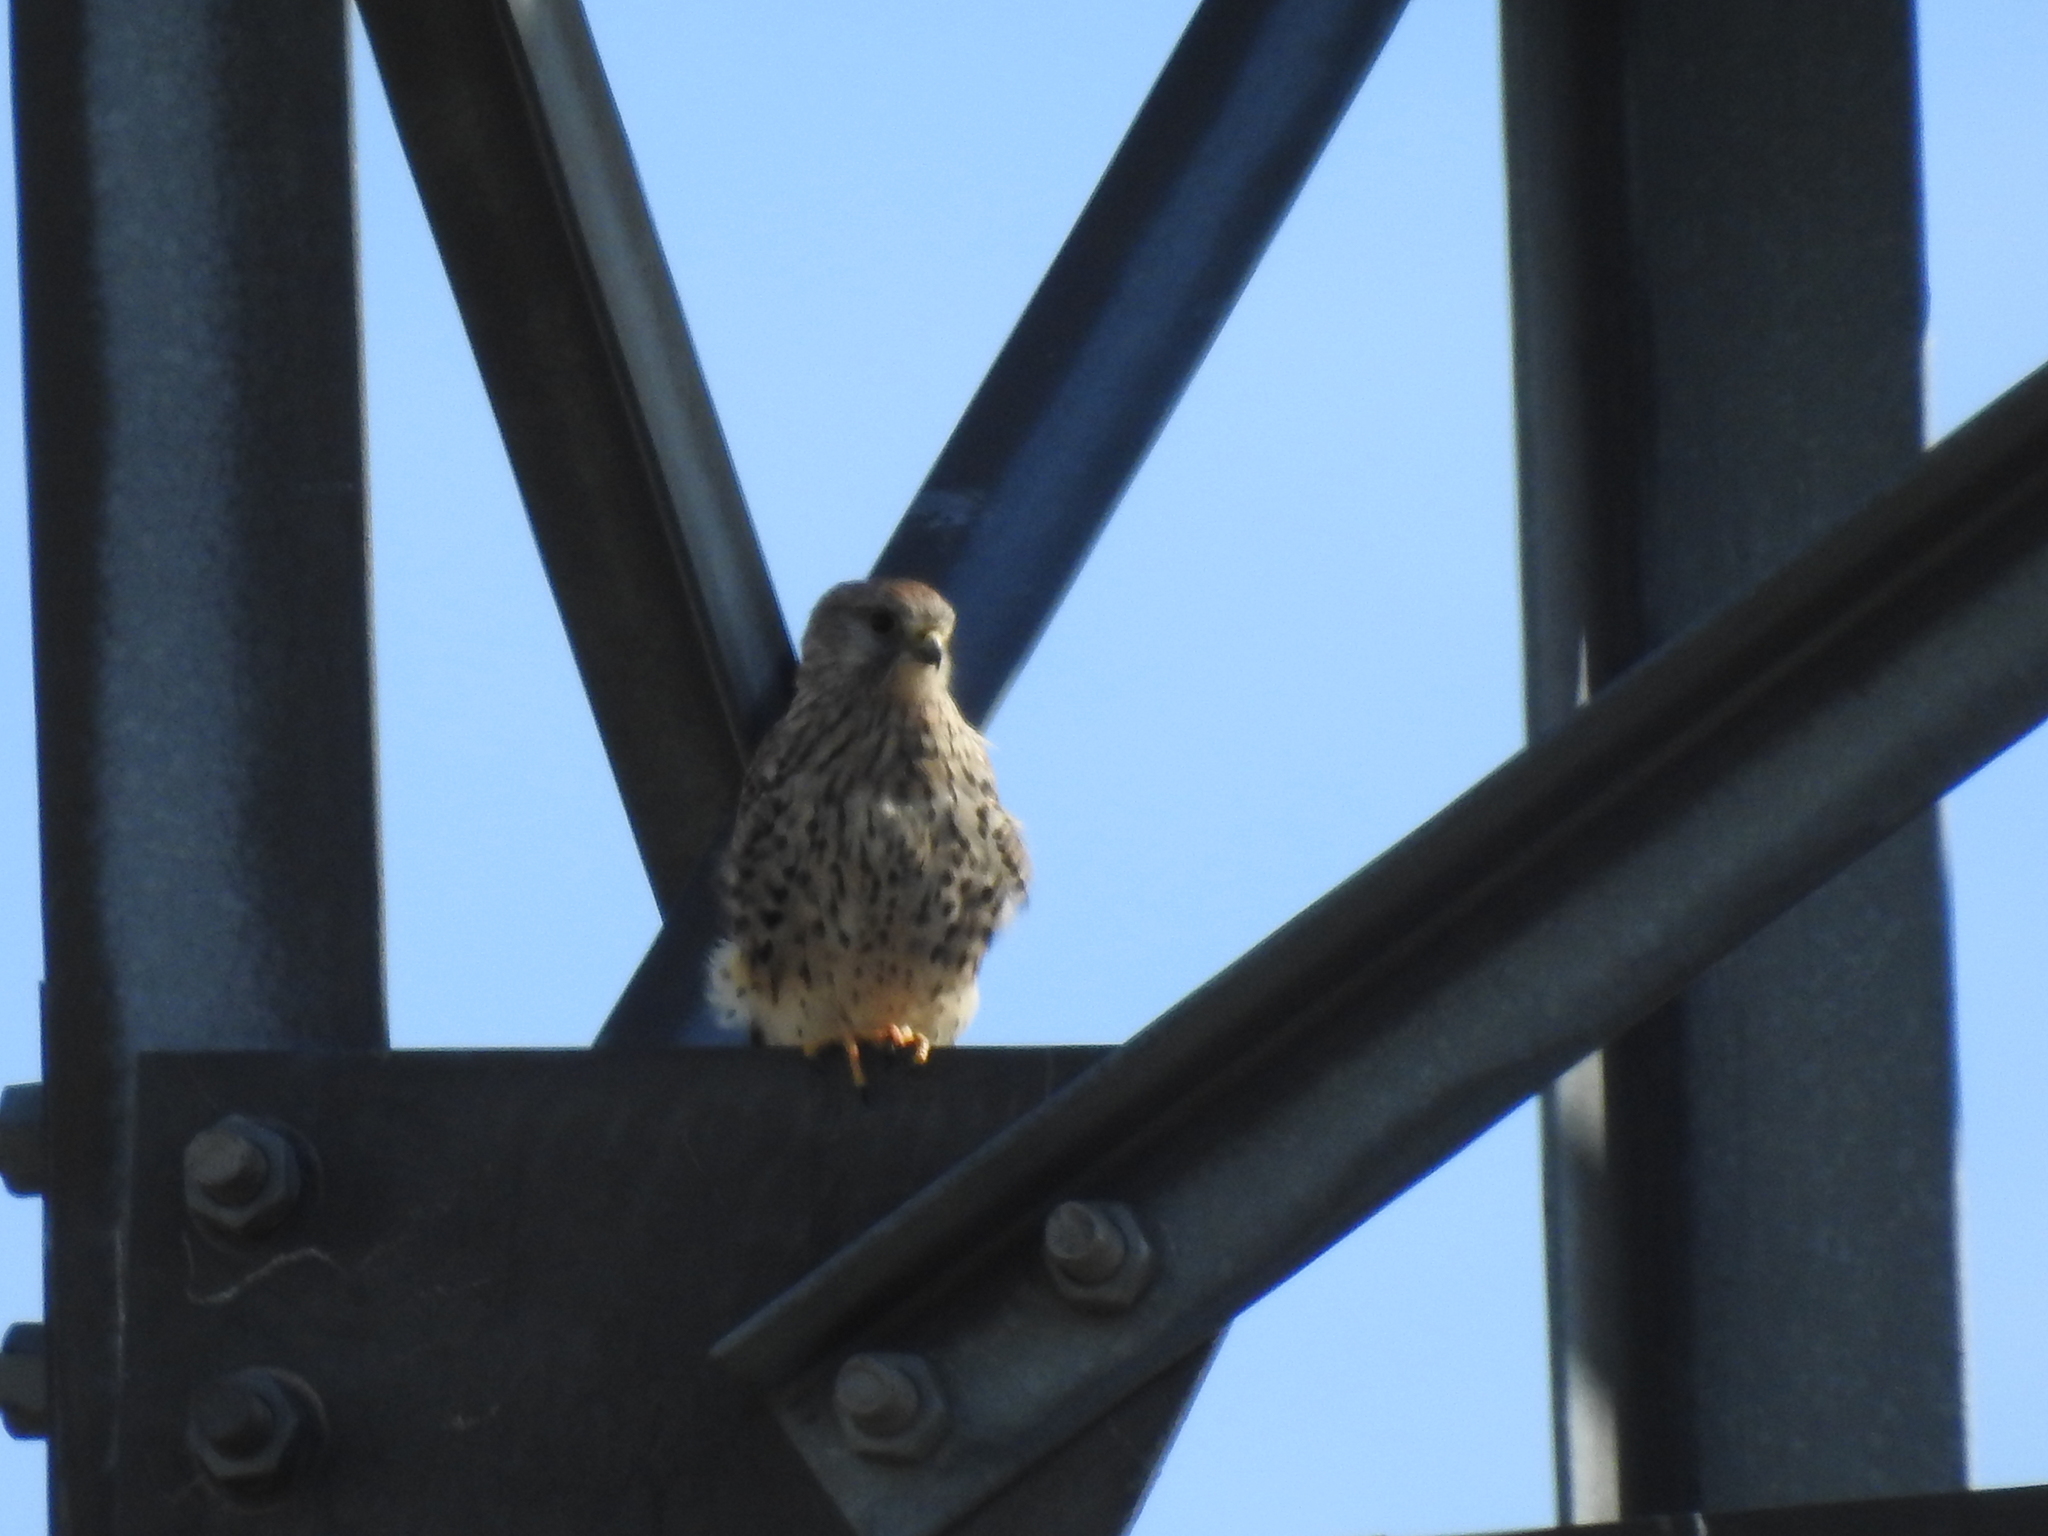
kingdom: Animalia
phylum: Chordata
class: Aves
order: Falconiformes
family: Falconidae
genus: Falco
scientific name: Falco tinnunculus
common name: Common kestrel
